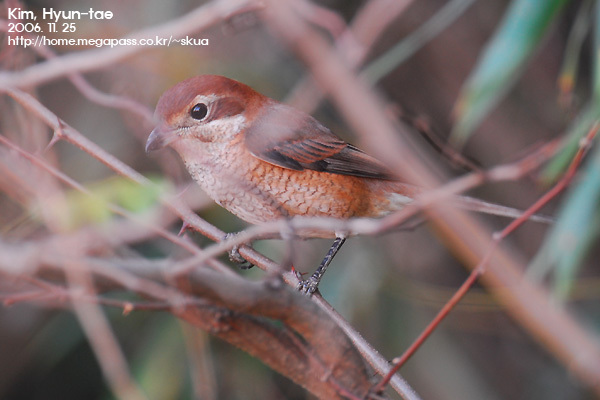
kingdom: Animalia
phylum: Chordata
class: Aves
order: Passeriformes
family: Laniidae
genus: Lanius
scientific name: Lanius bucephalus
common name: Bull-headed shrike
